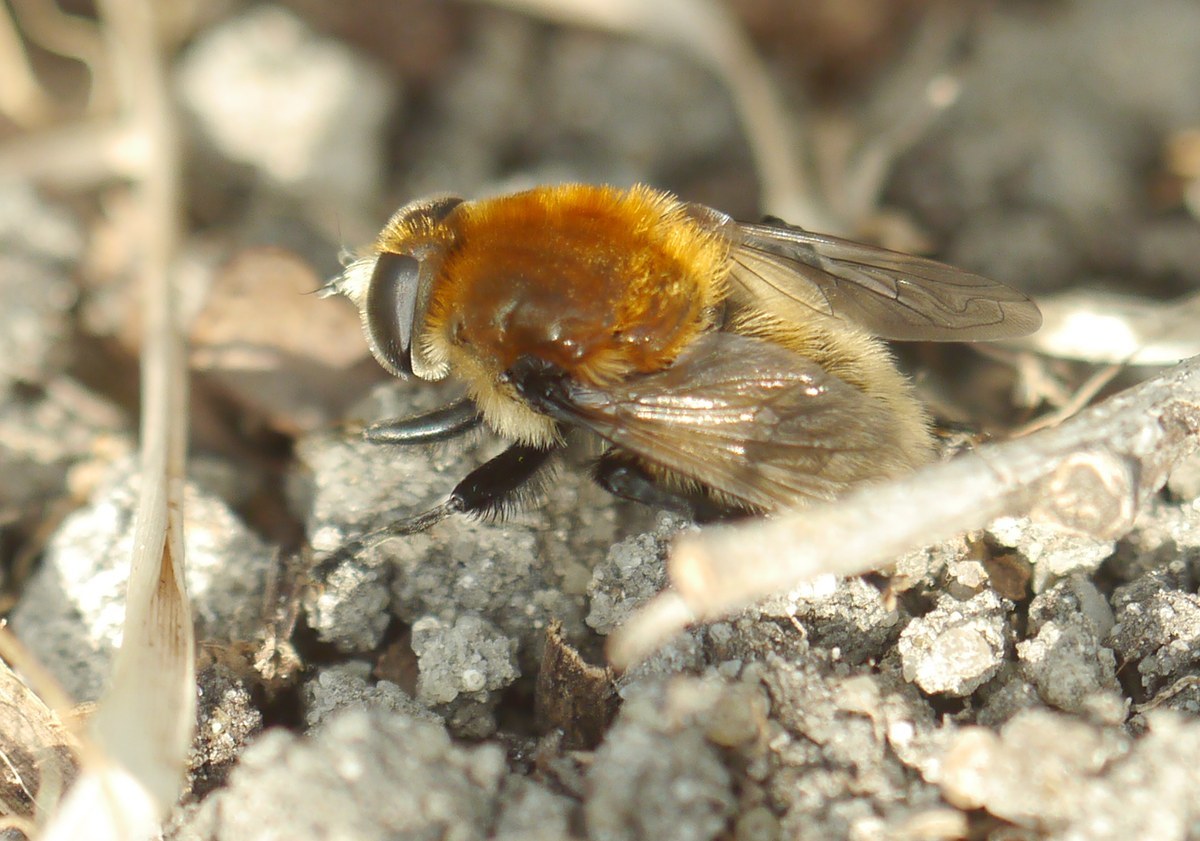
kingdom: Animalia
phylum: Arthropoda
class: Insecta
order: Diptera
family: Syrphidae
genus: Merodon
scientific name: Merodon equestris
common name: Greater bulb-fly
